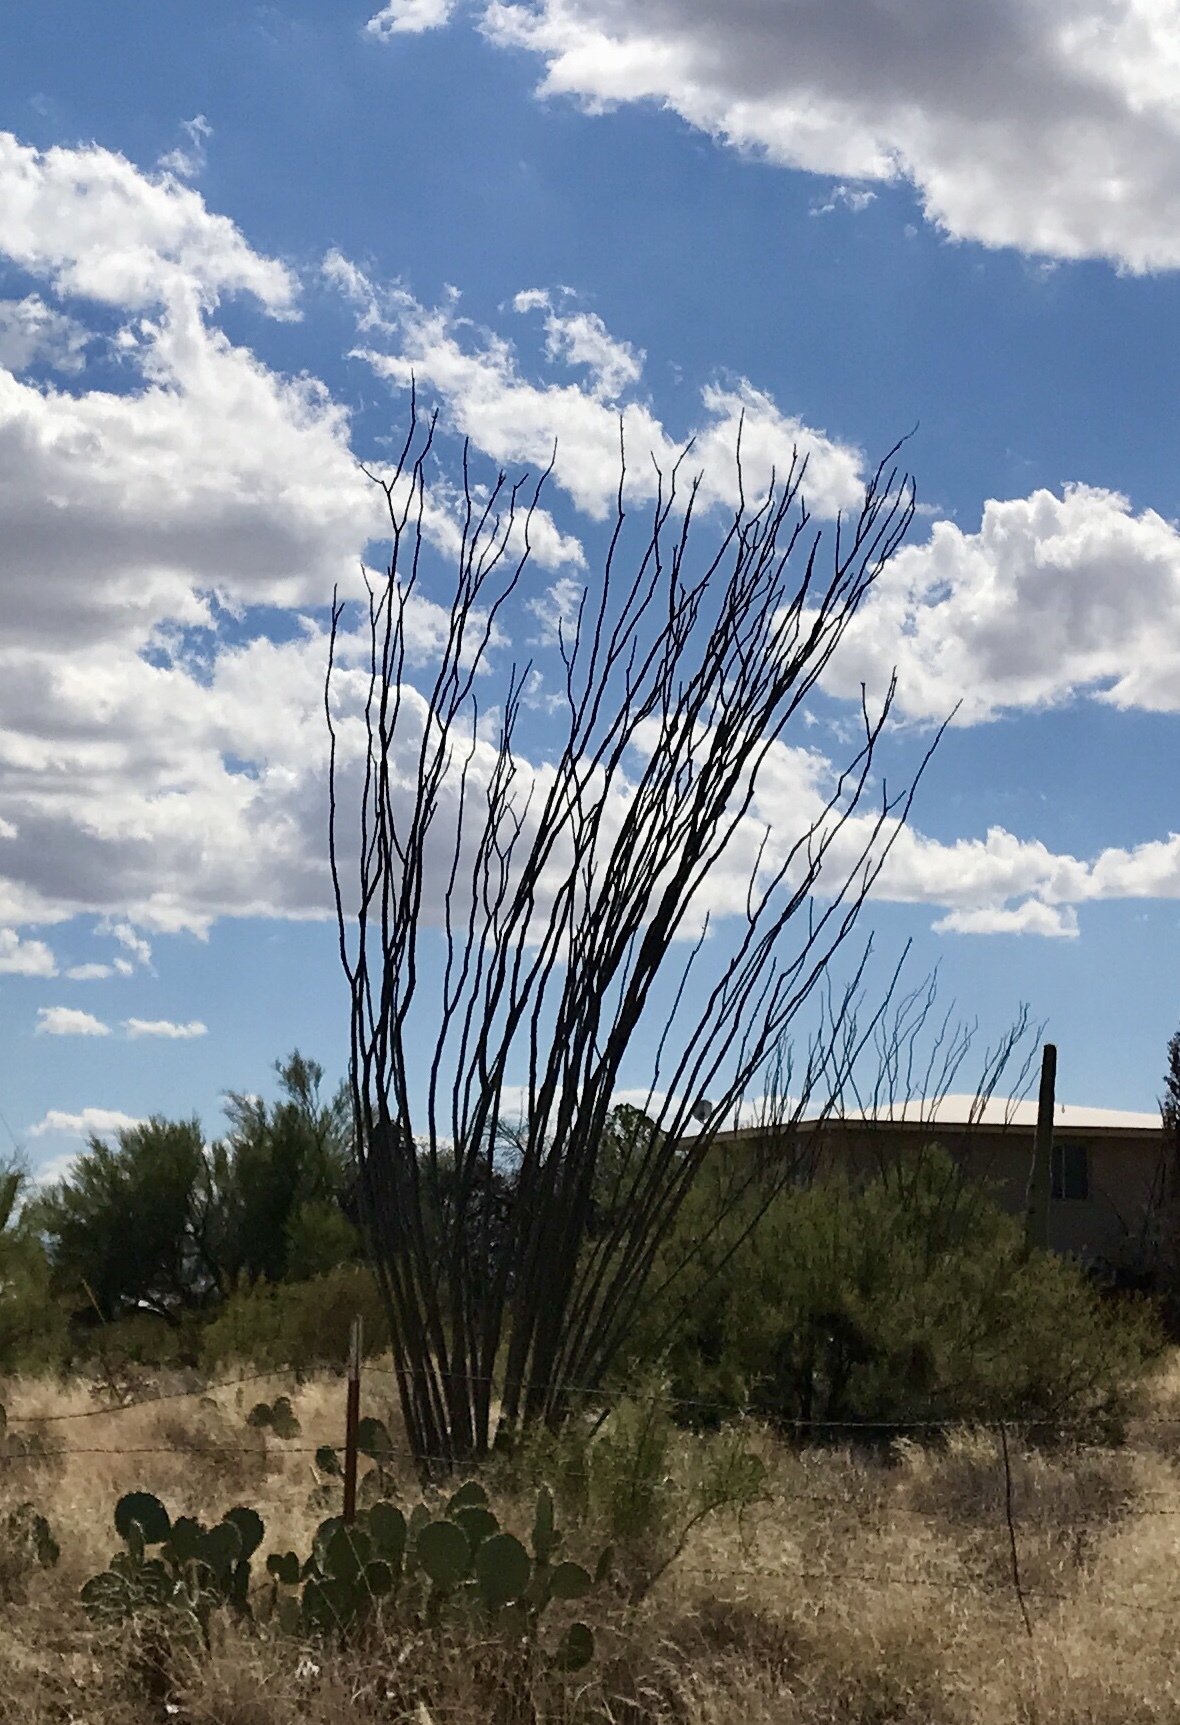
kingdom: Plantae
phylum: Tracheophyta
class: Magnoliopsida
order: Ericales
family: Fouquieriaceae
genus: Fouquieria
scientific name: Fouquieria splendens
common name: Vine-cactus
